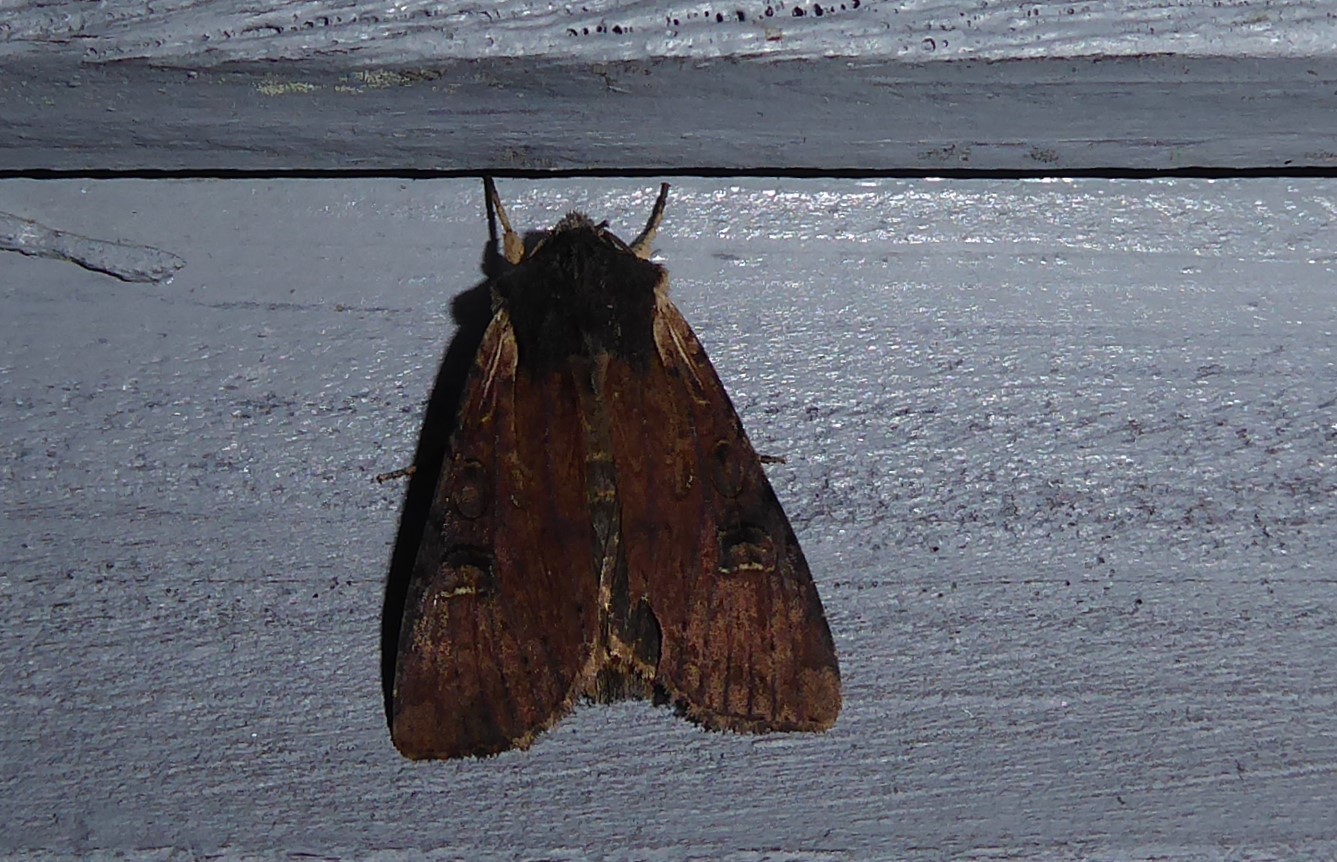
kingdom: Animalia
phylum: Arthropoda
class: Insecta
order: Lepidoptera
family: Noctuidae
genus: Ichneutica
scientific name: Ichneutica omoplaca
